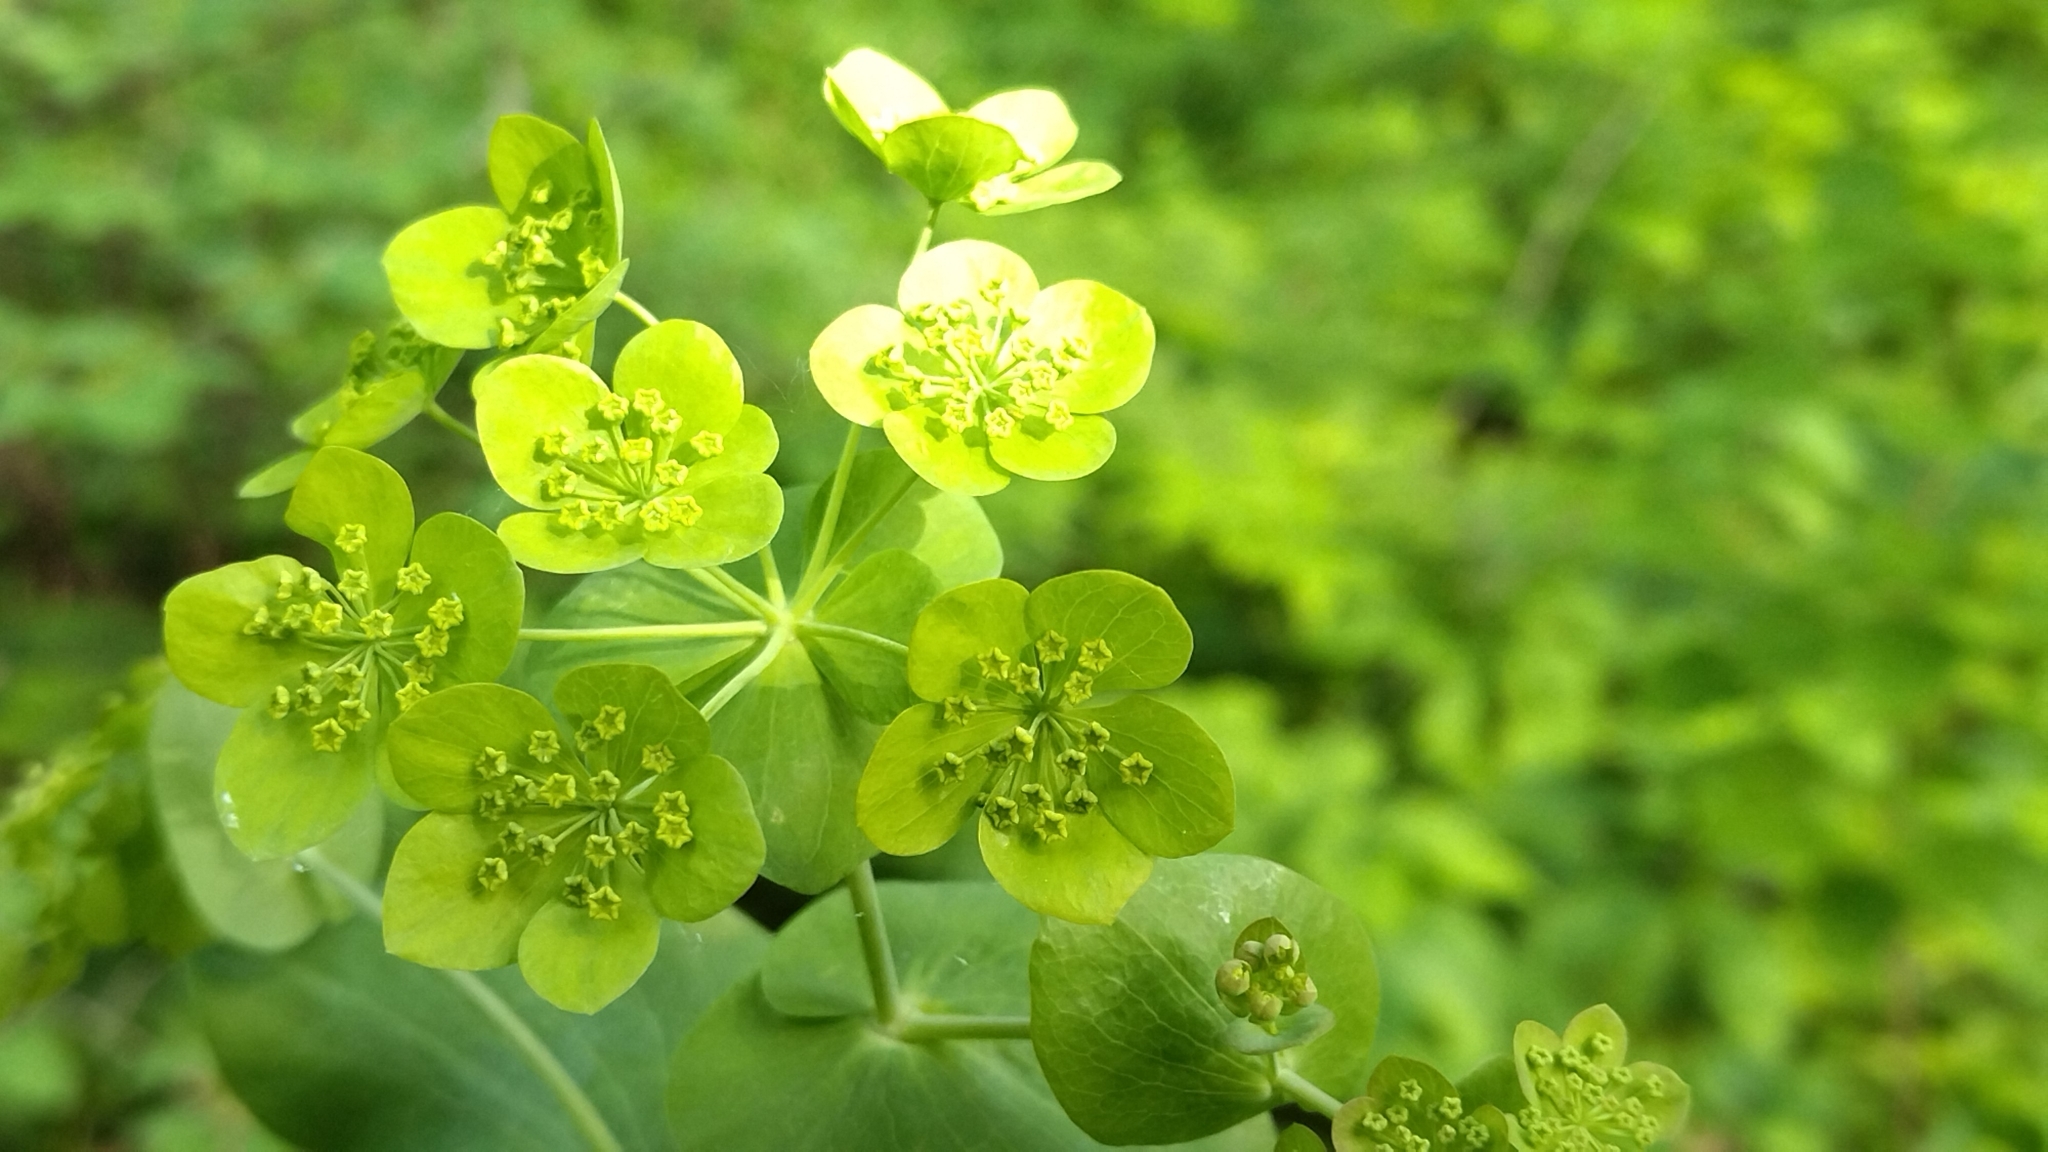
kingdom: Plantae
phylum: Tracheophyta
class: Magnoliopsida
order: Apiales
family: Apiaceae
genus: Bupleurum
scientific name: Bupleurum aureum
